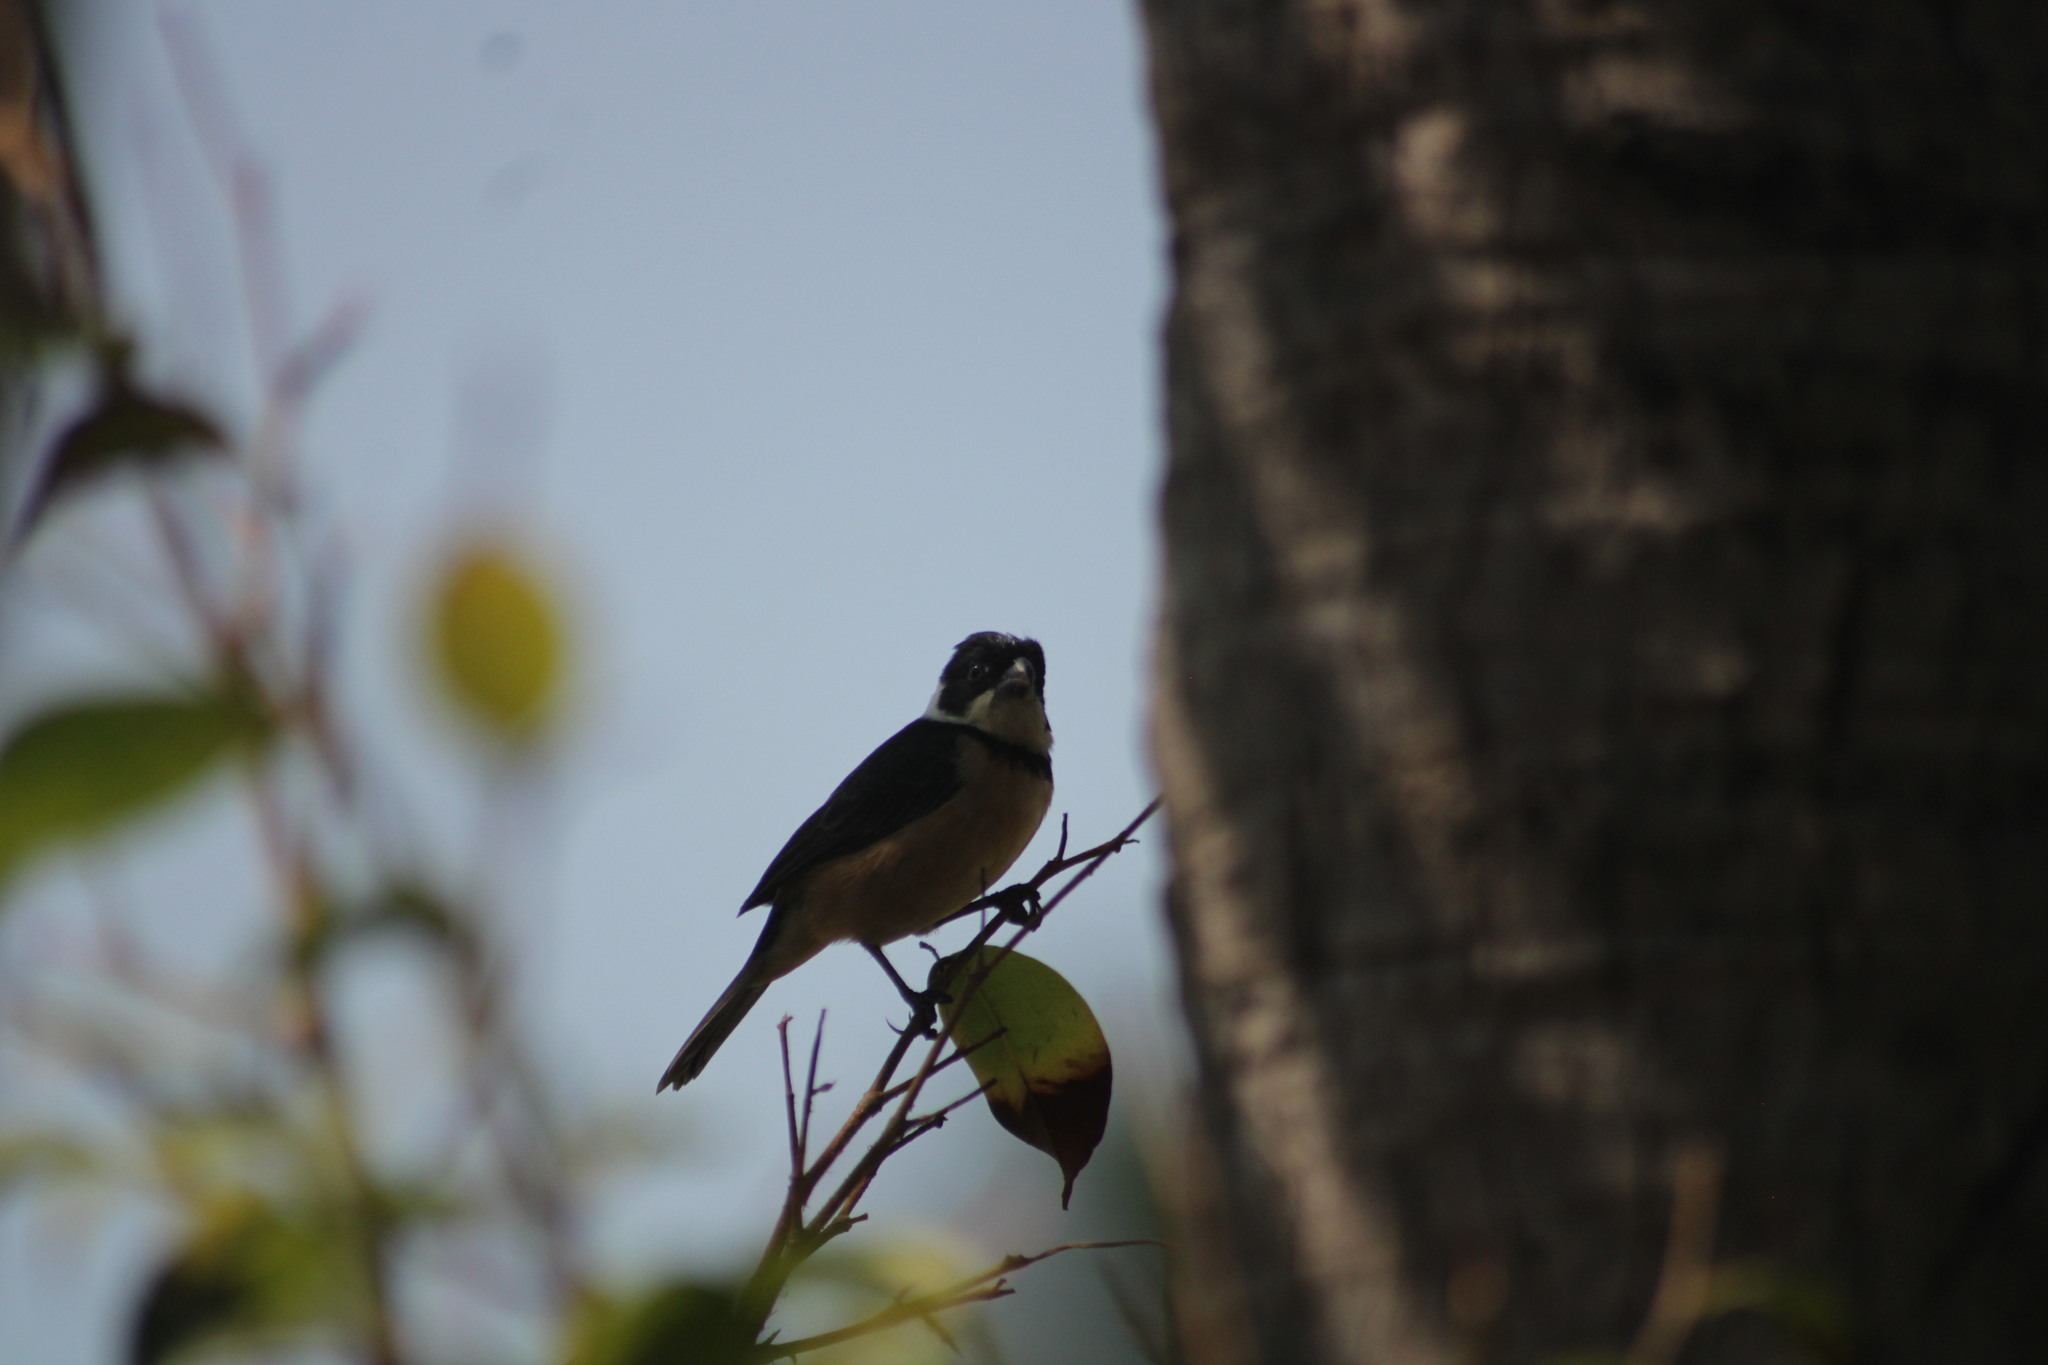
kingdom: Animalia
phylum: Chordata
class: Aves
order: Passeriformes
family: Thraupidae
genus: Sporophila
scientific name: Sporophila torqueola
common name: White-collared seedeater
